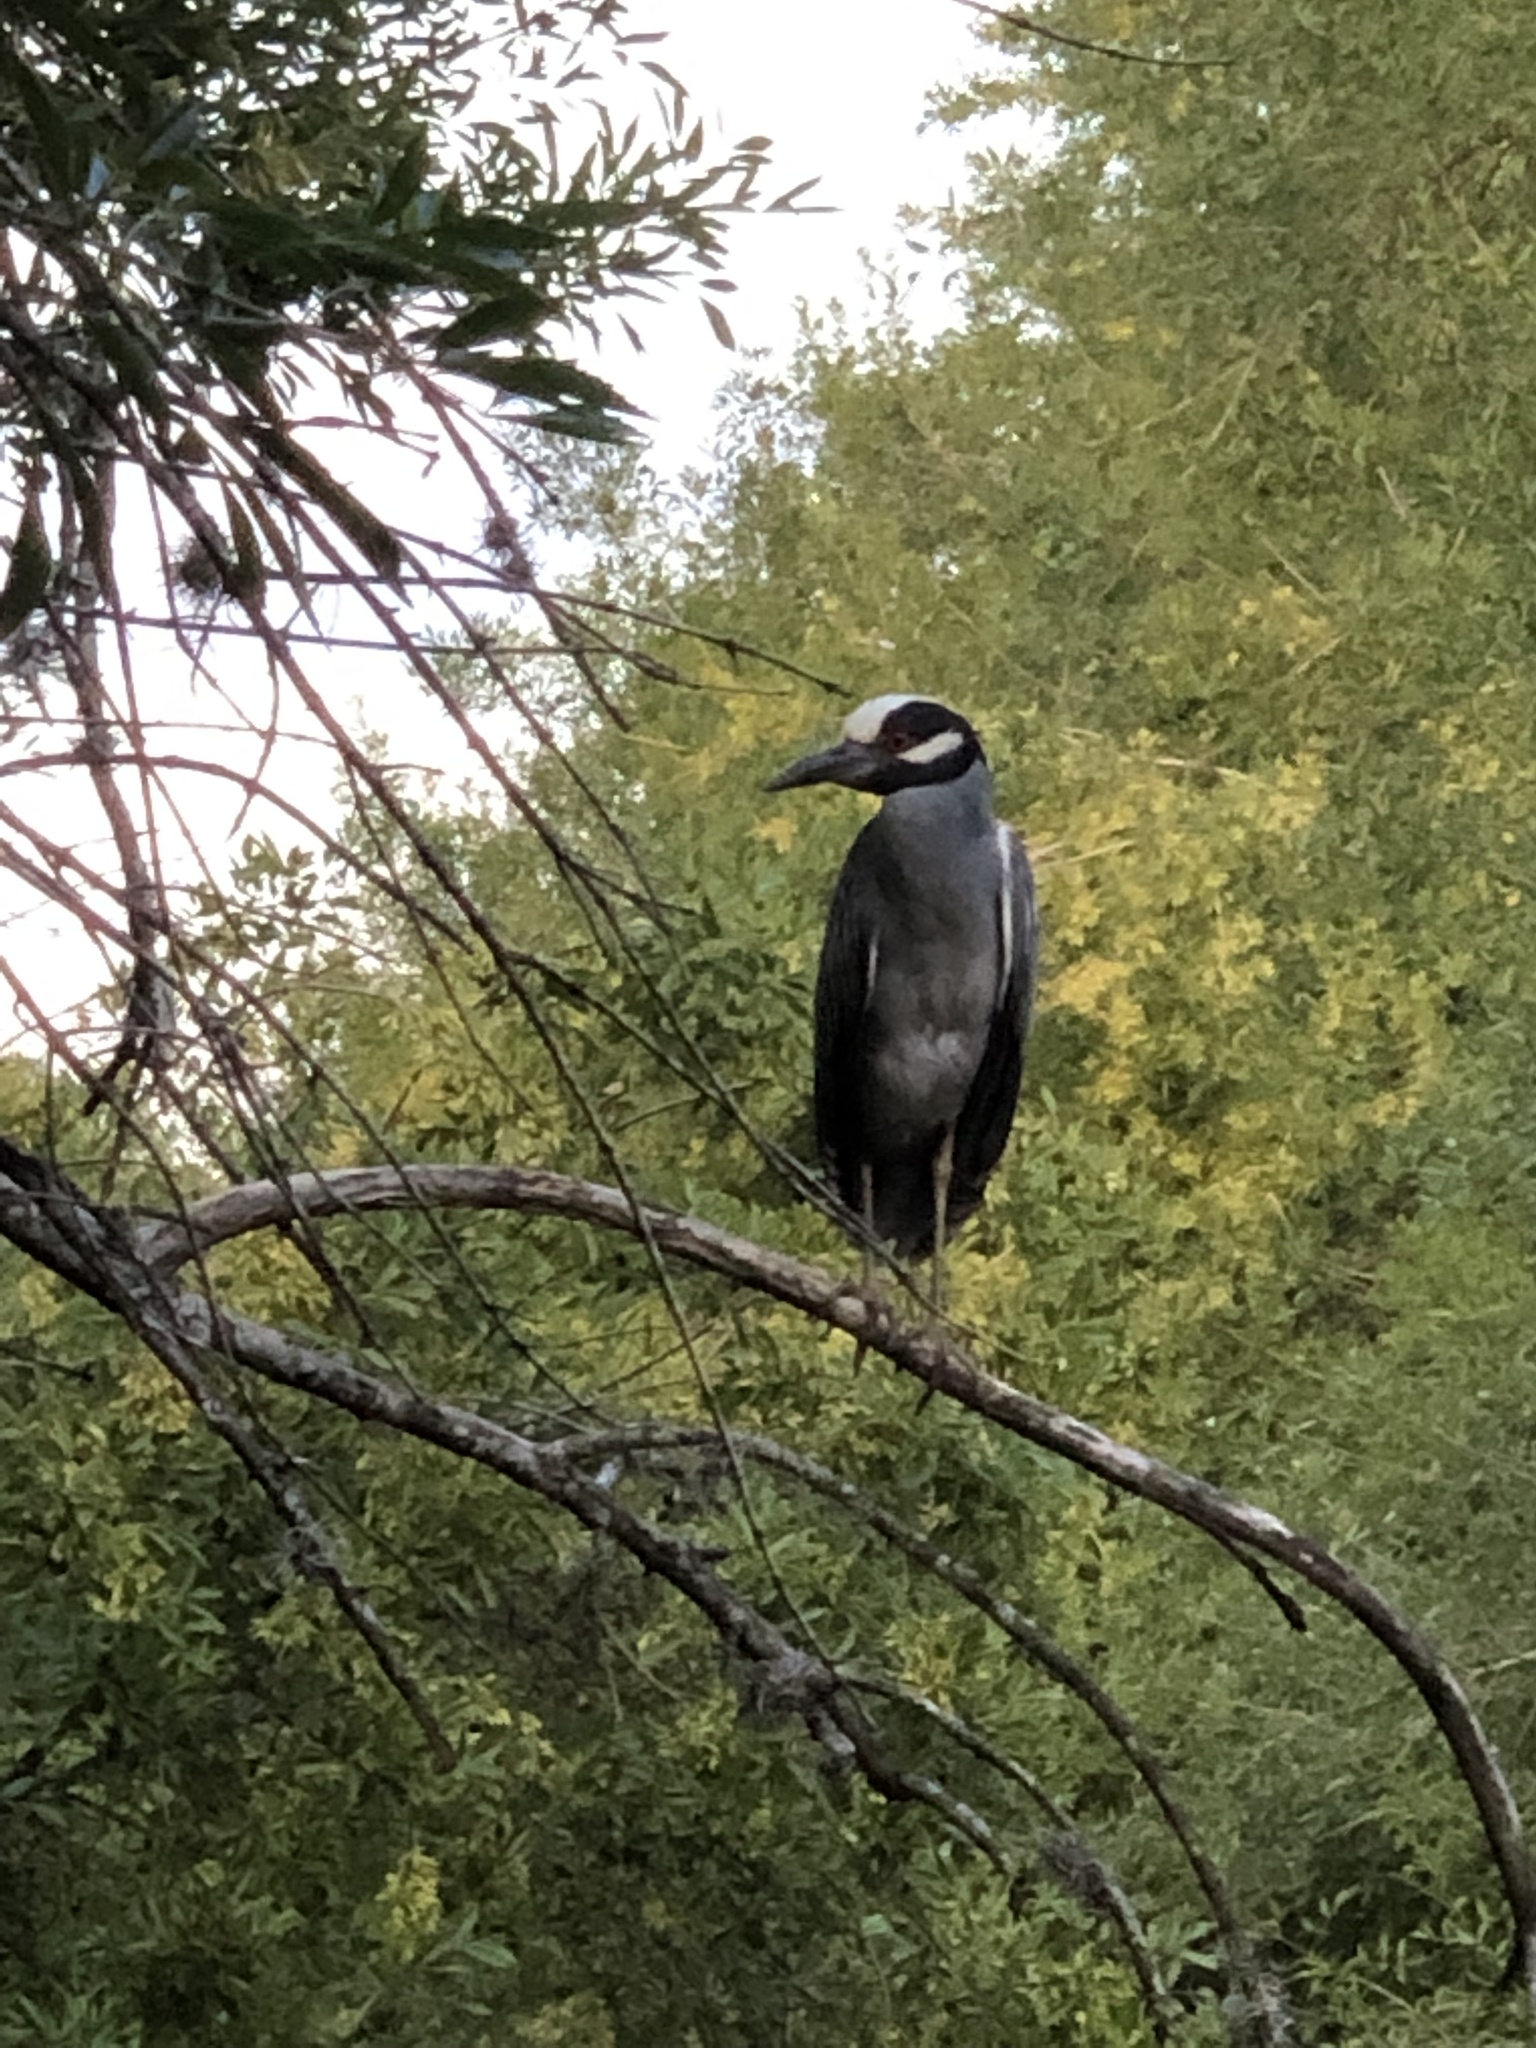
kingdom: Animalia
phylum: Chordata
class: Aves
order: Pelecaniformes
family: Ardeidae
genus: Nyctanassa
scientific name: Nyctanassa violacea
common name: Yellow-crowned night heron
